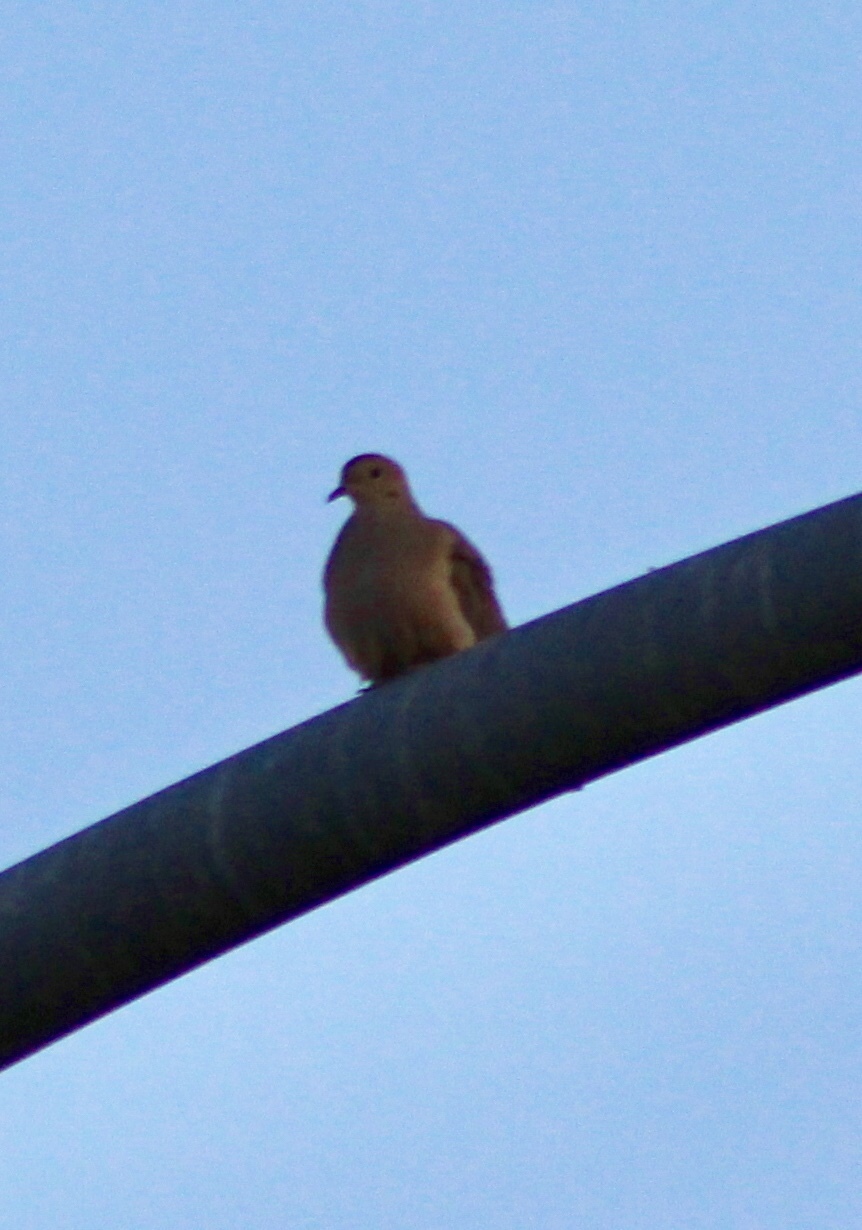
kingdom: Animalia
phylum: Chordata
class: Aves
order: Columbiformes
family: Columbidae
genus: Zenaida
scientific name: Zenaida macroura
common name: Mourning dove
